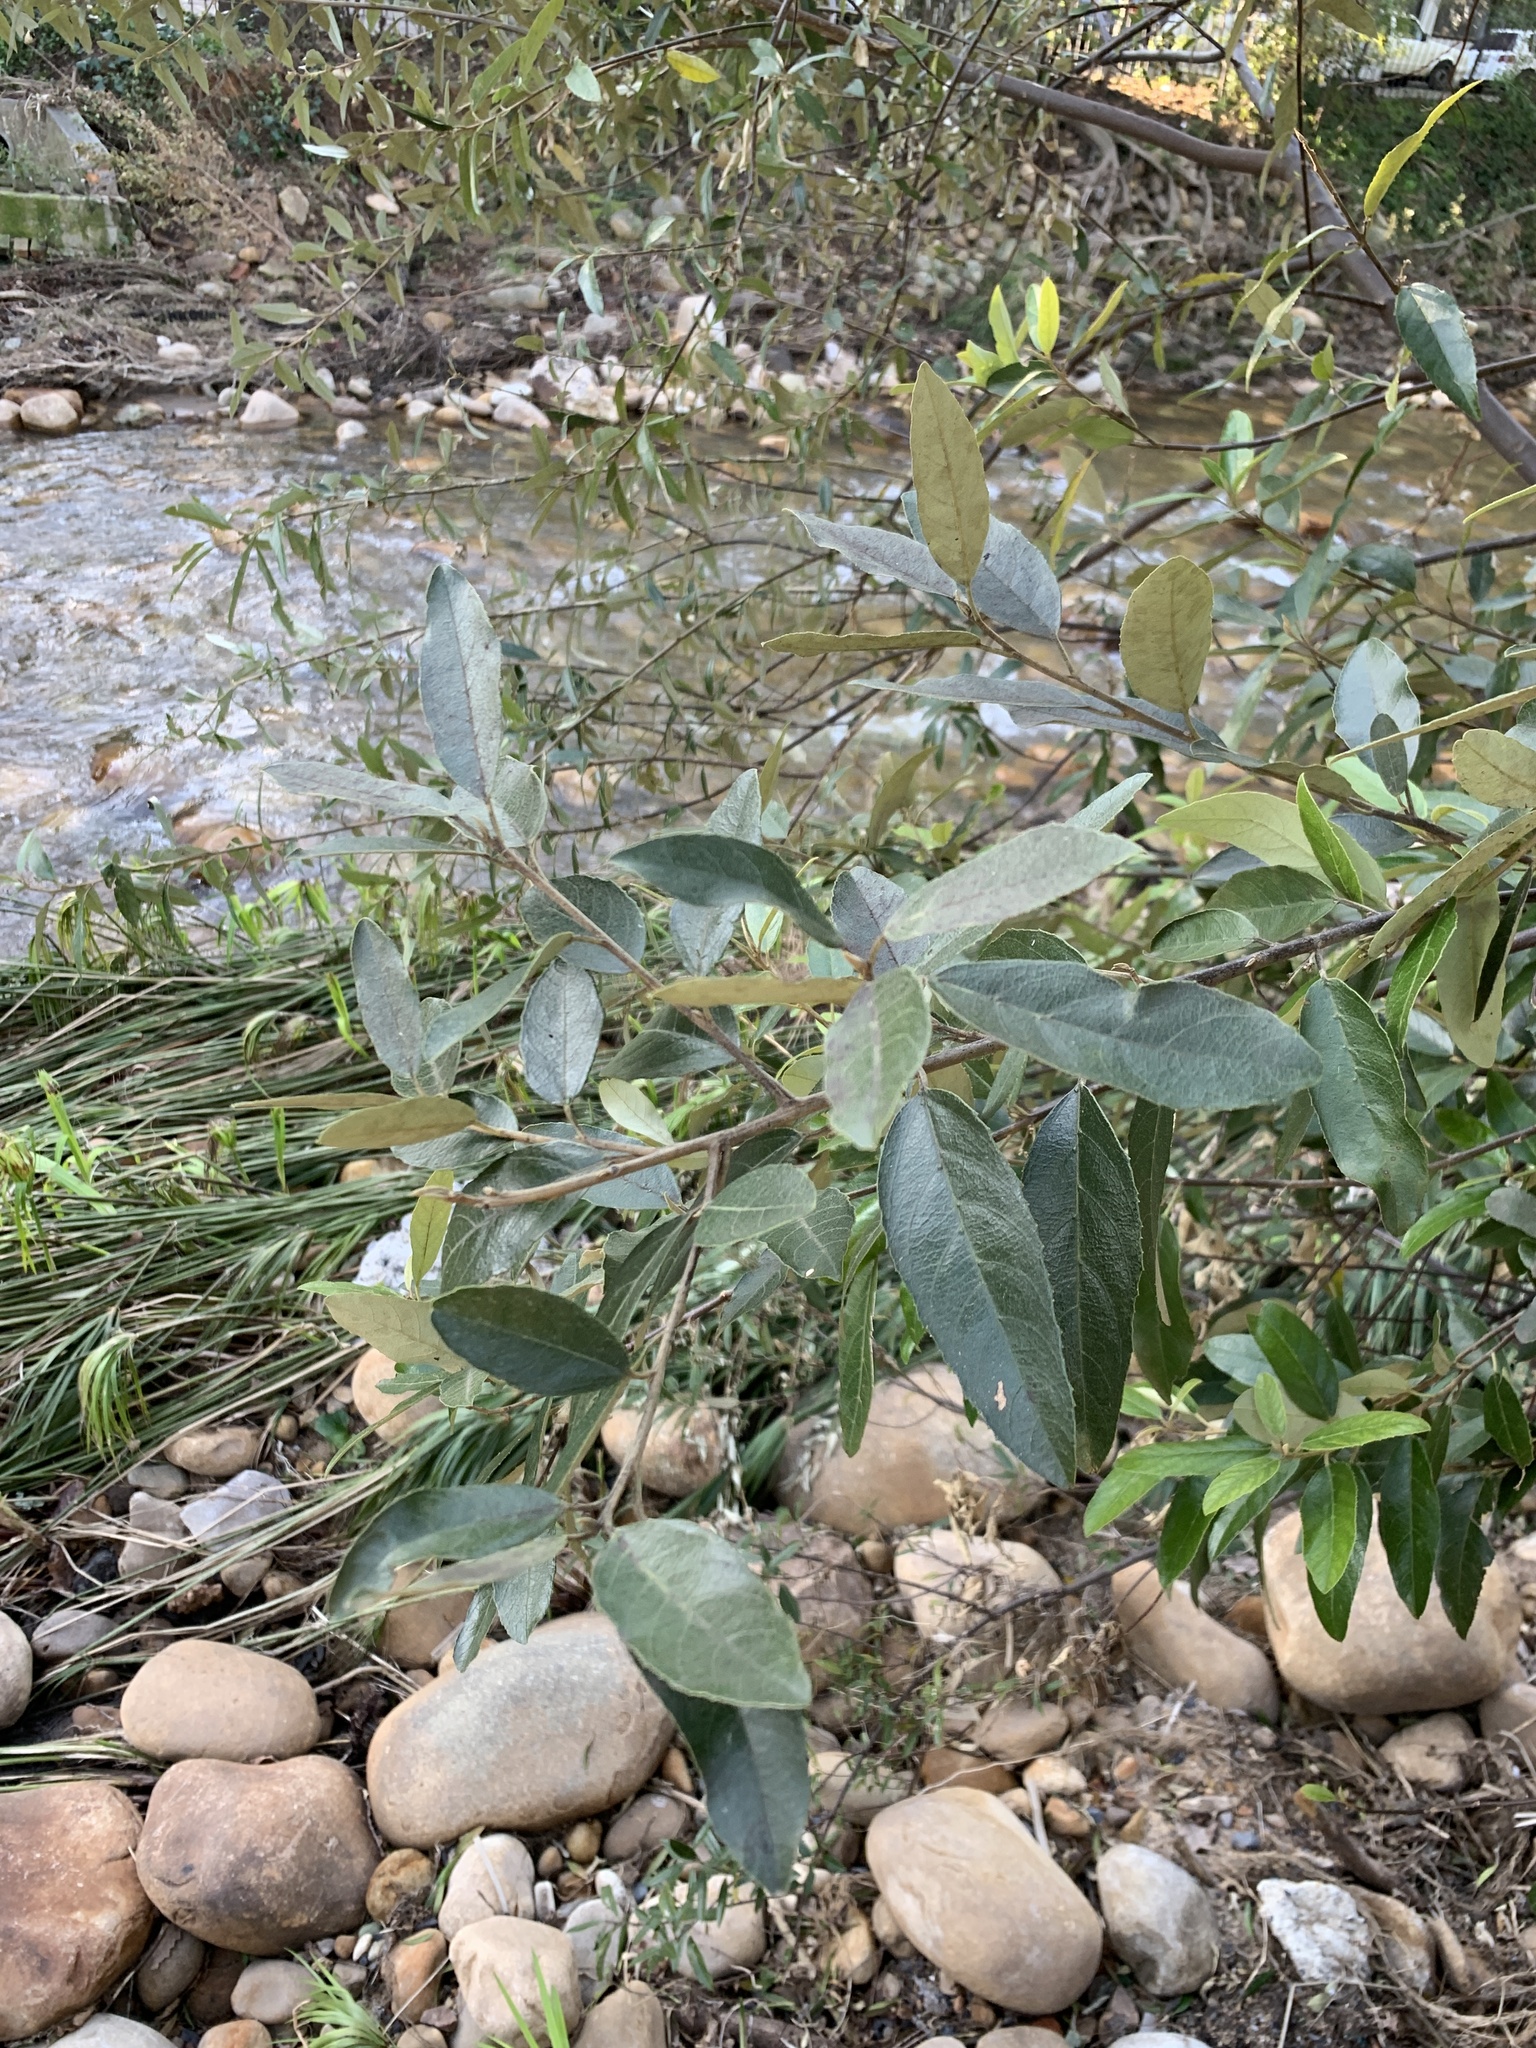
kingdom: Plantae
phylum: Tracheophyta
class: Magnoliopsida
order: Malpighiales
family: Achariaceae
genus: Kiggelaria
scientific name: Kiggelaria africana
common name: Wild peach
